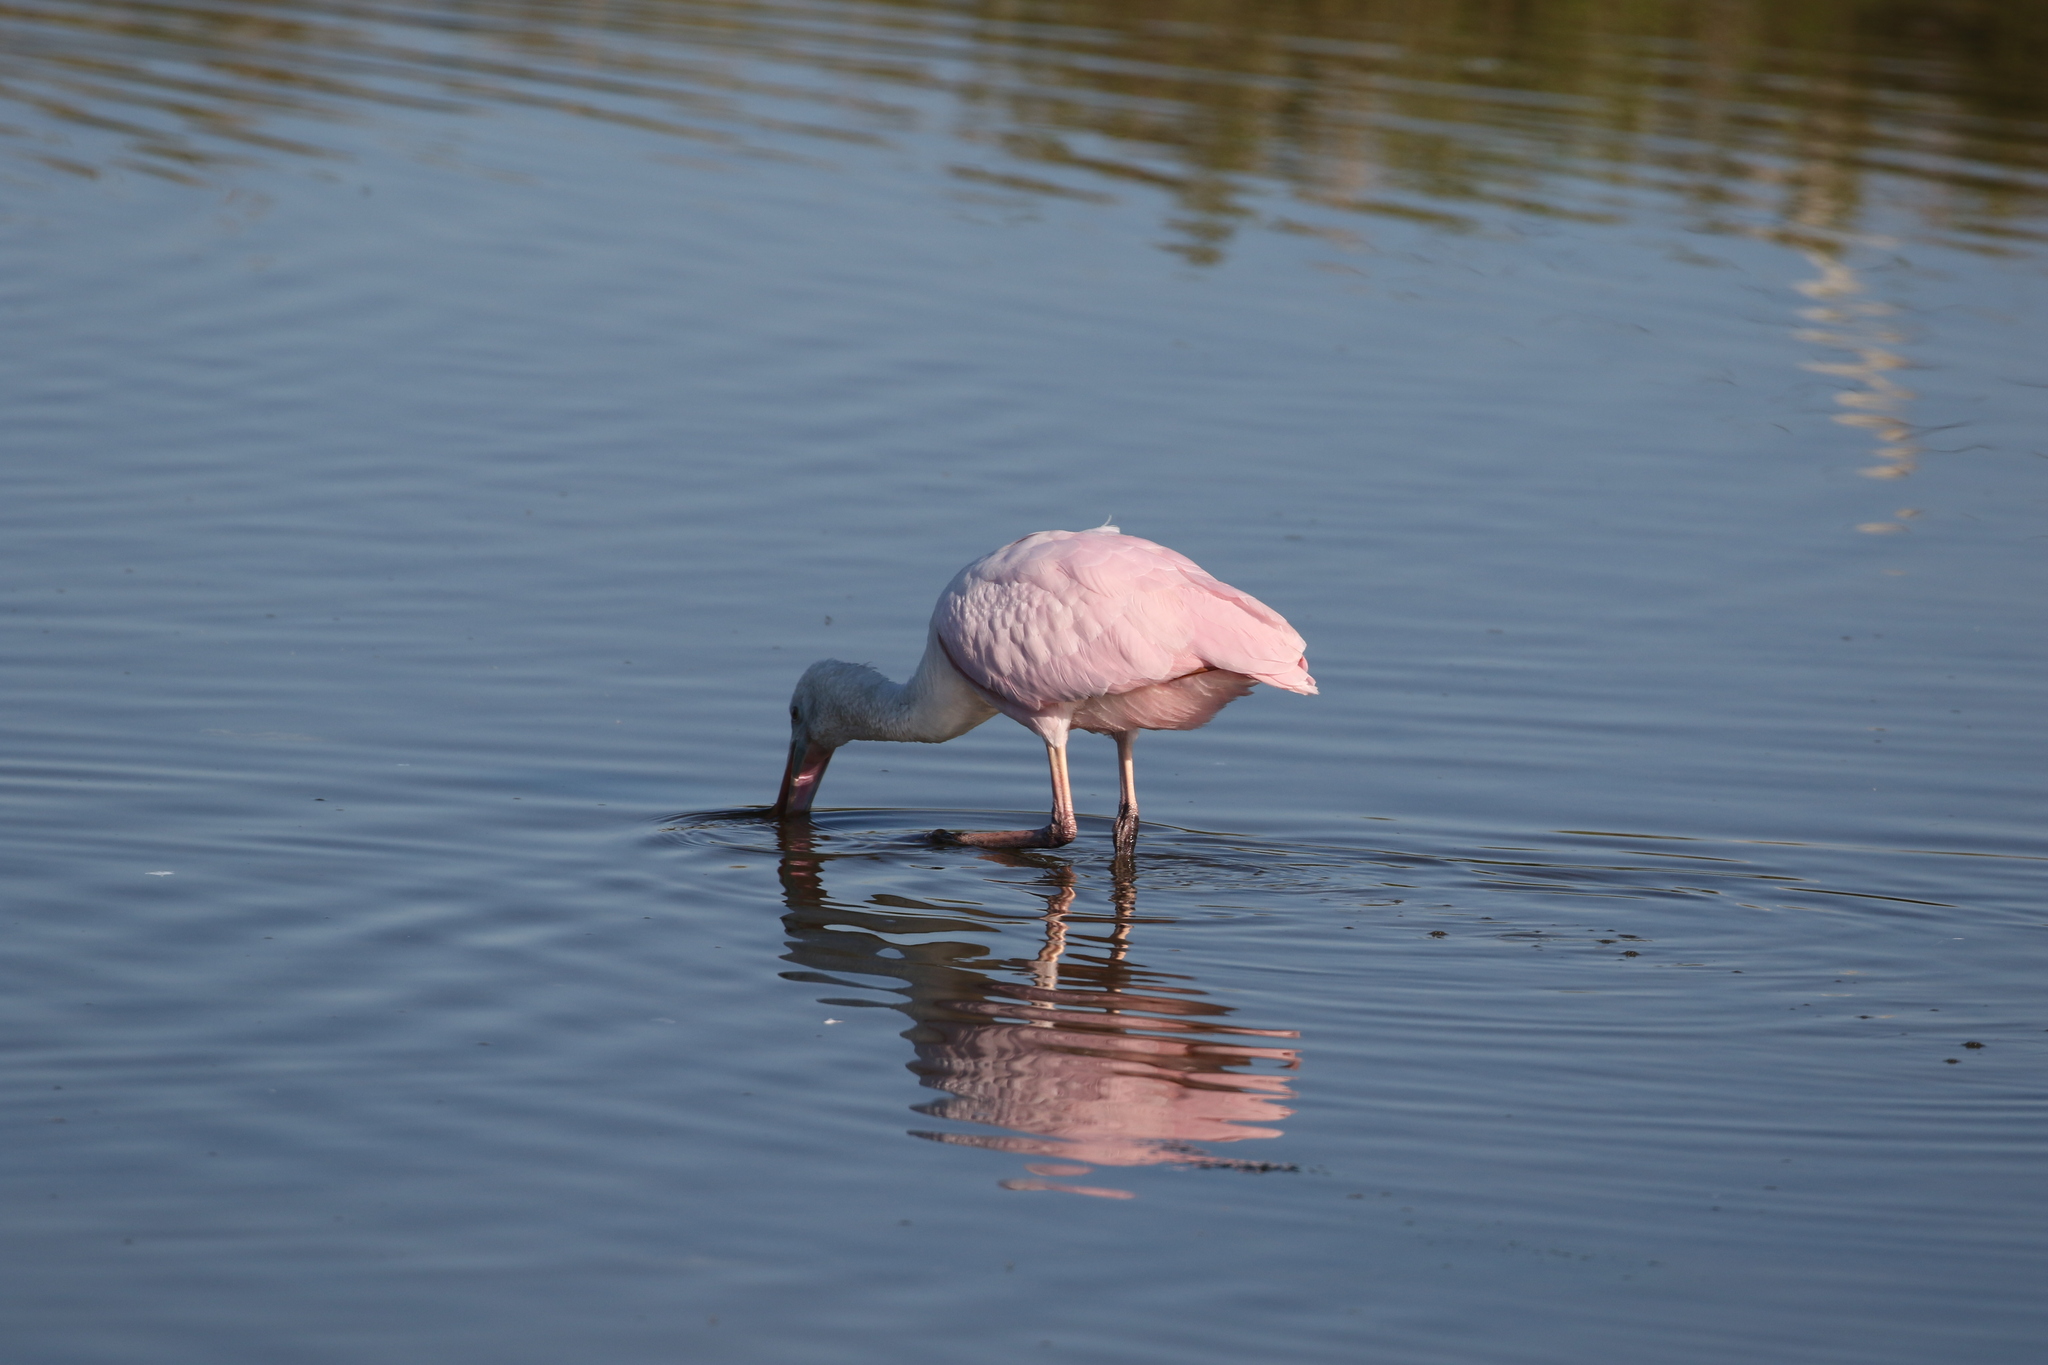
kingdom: Animalia
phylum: Chordata
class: Aves
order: Pelecaniformes
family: Threskiornithidae
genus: Platalea
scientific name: Platalea ajaja
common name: Roseate spoonbill
